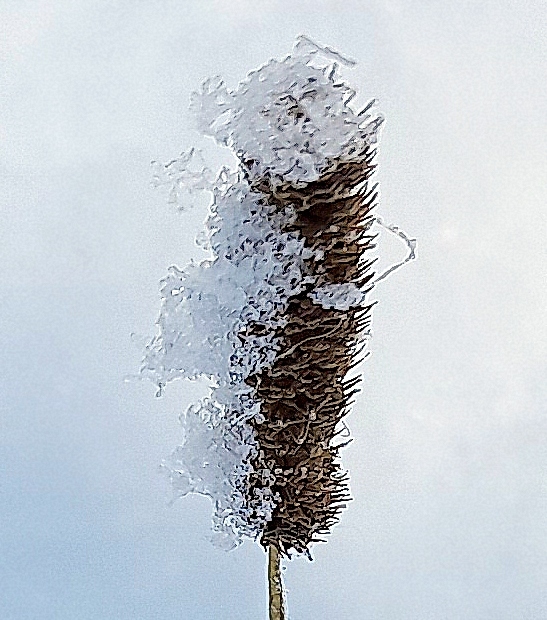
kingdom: Plantae
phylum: Tracheophyta
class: Liliopsida
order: Poales
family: Poaceae
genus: Phleum
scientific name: Phleum pratense
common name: Timothy grass
